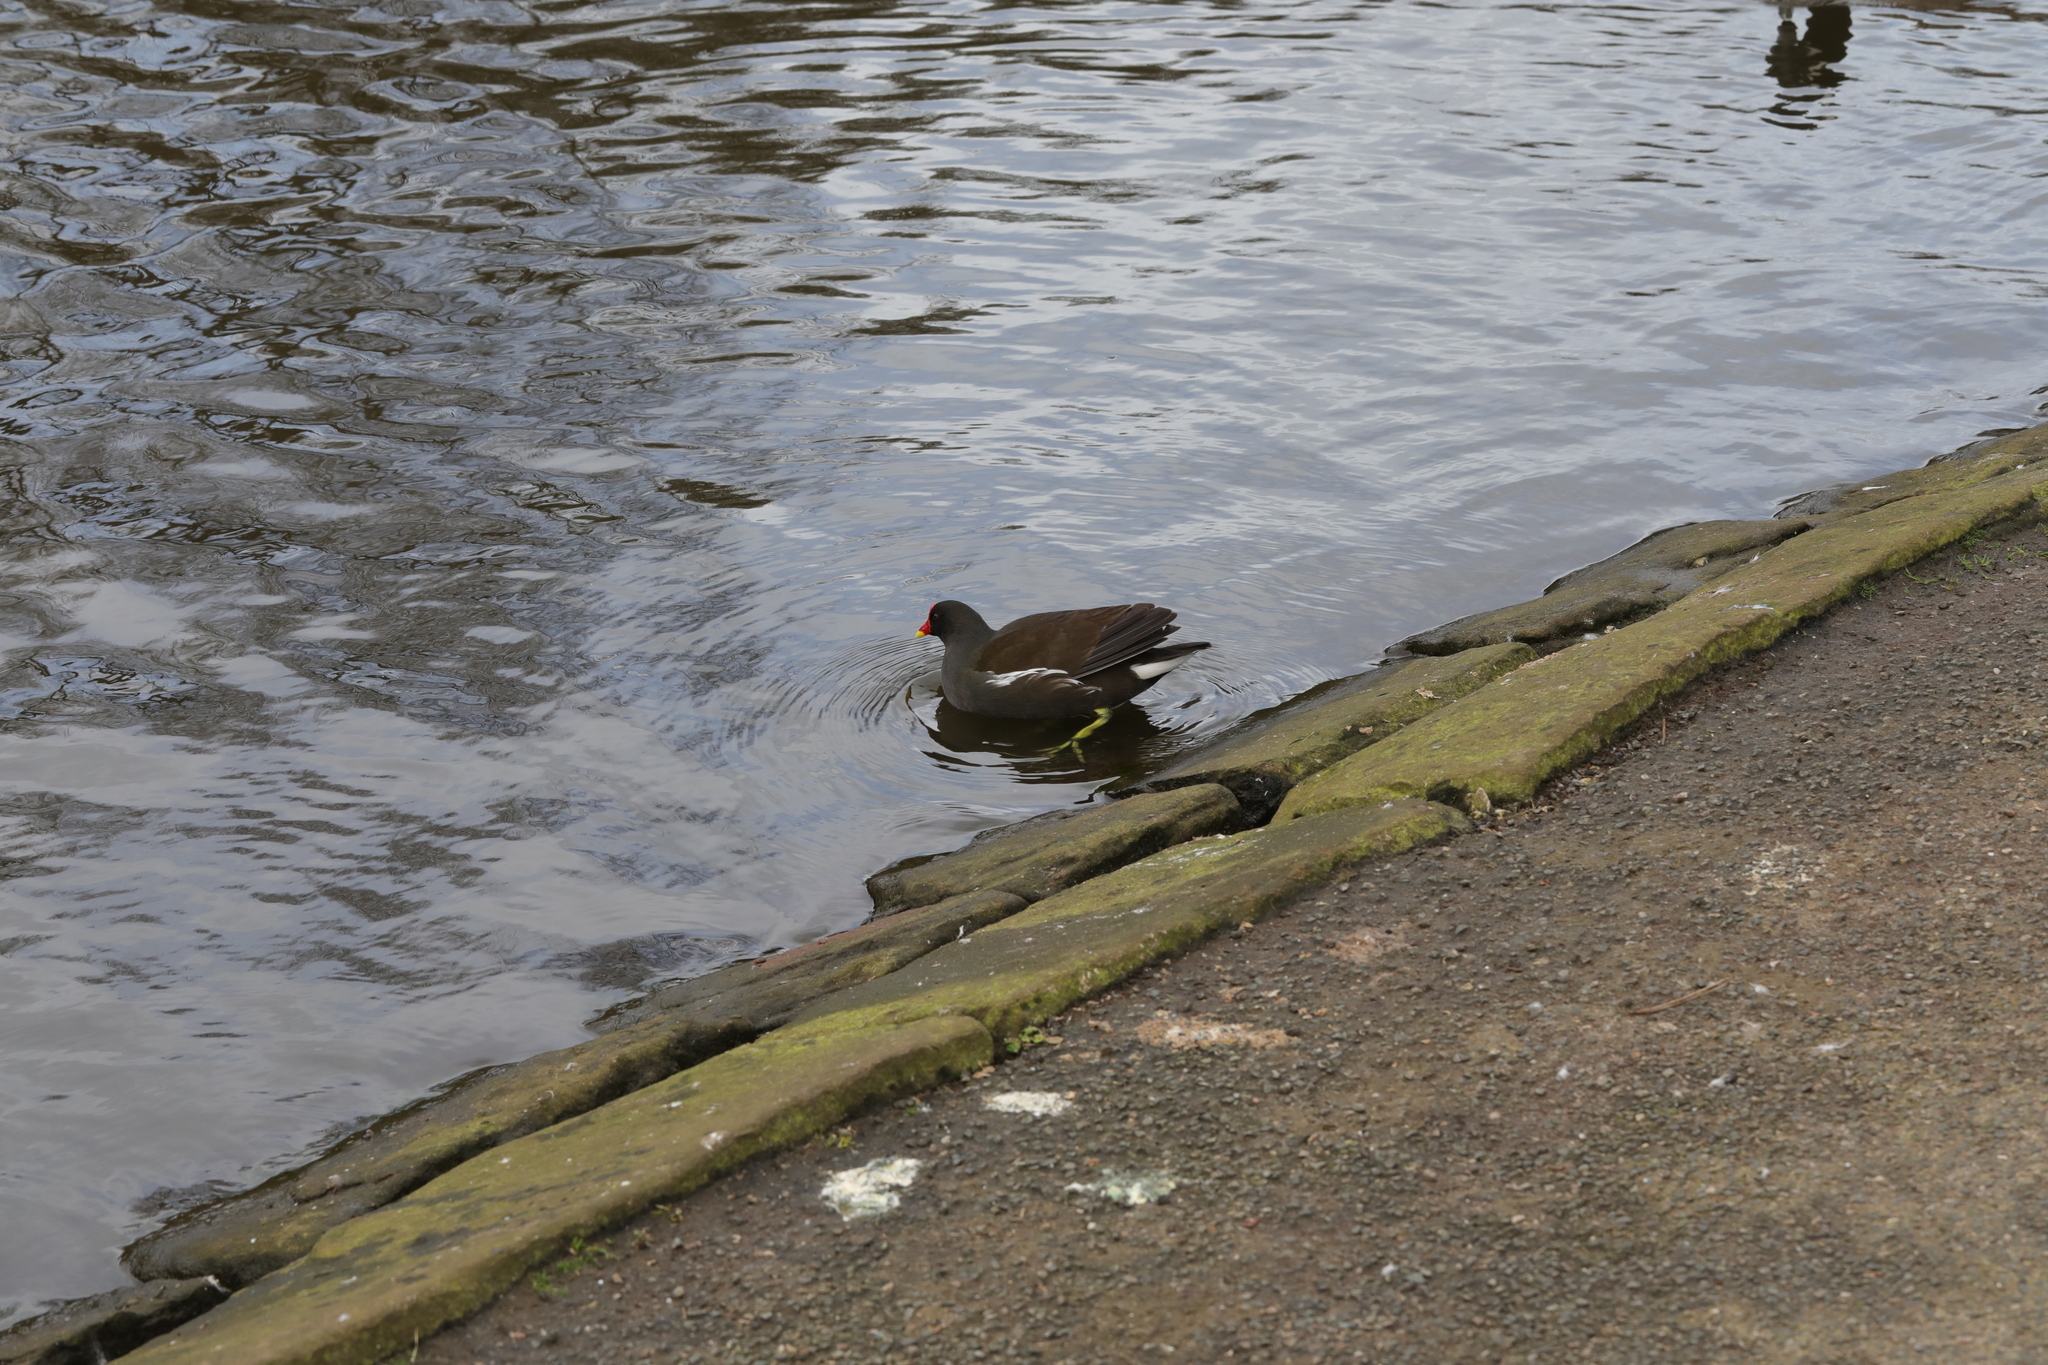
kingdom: Animalia
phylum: Chordata
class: Aves
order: Gruiformes
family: Rallidae
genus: Gallinula
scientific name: Gallinula chloropus
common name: Common moorhen
